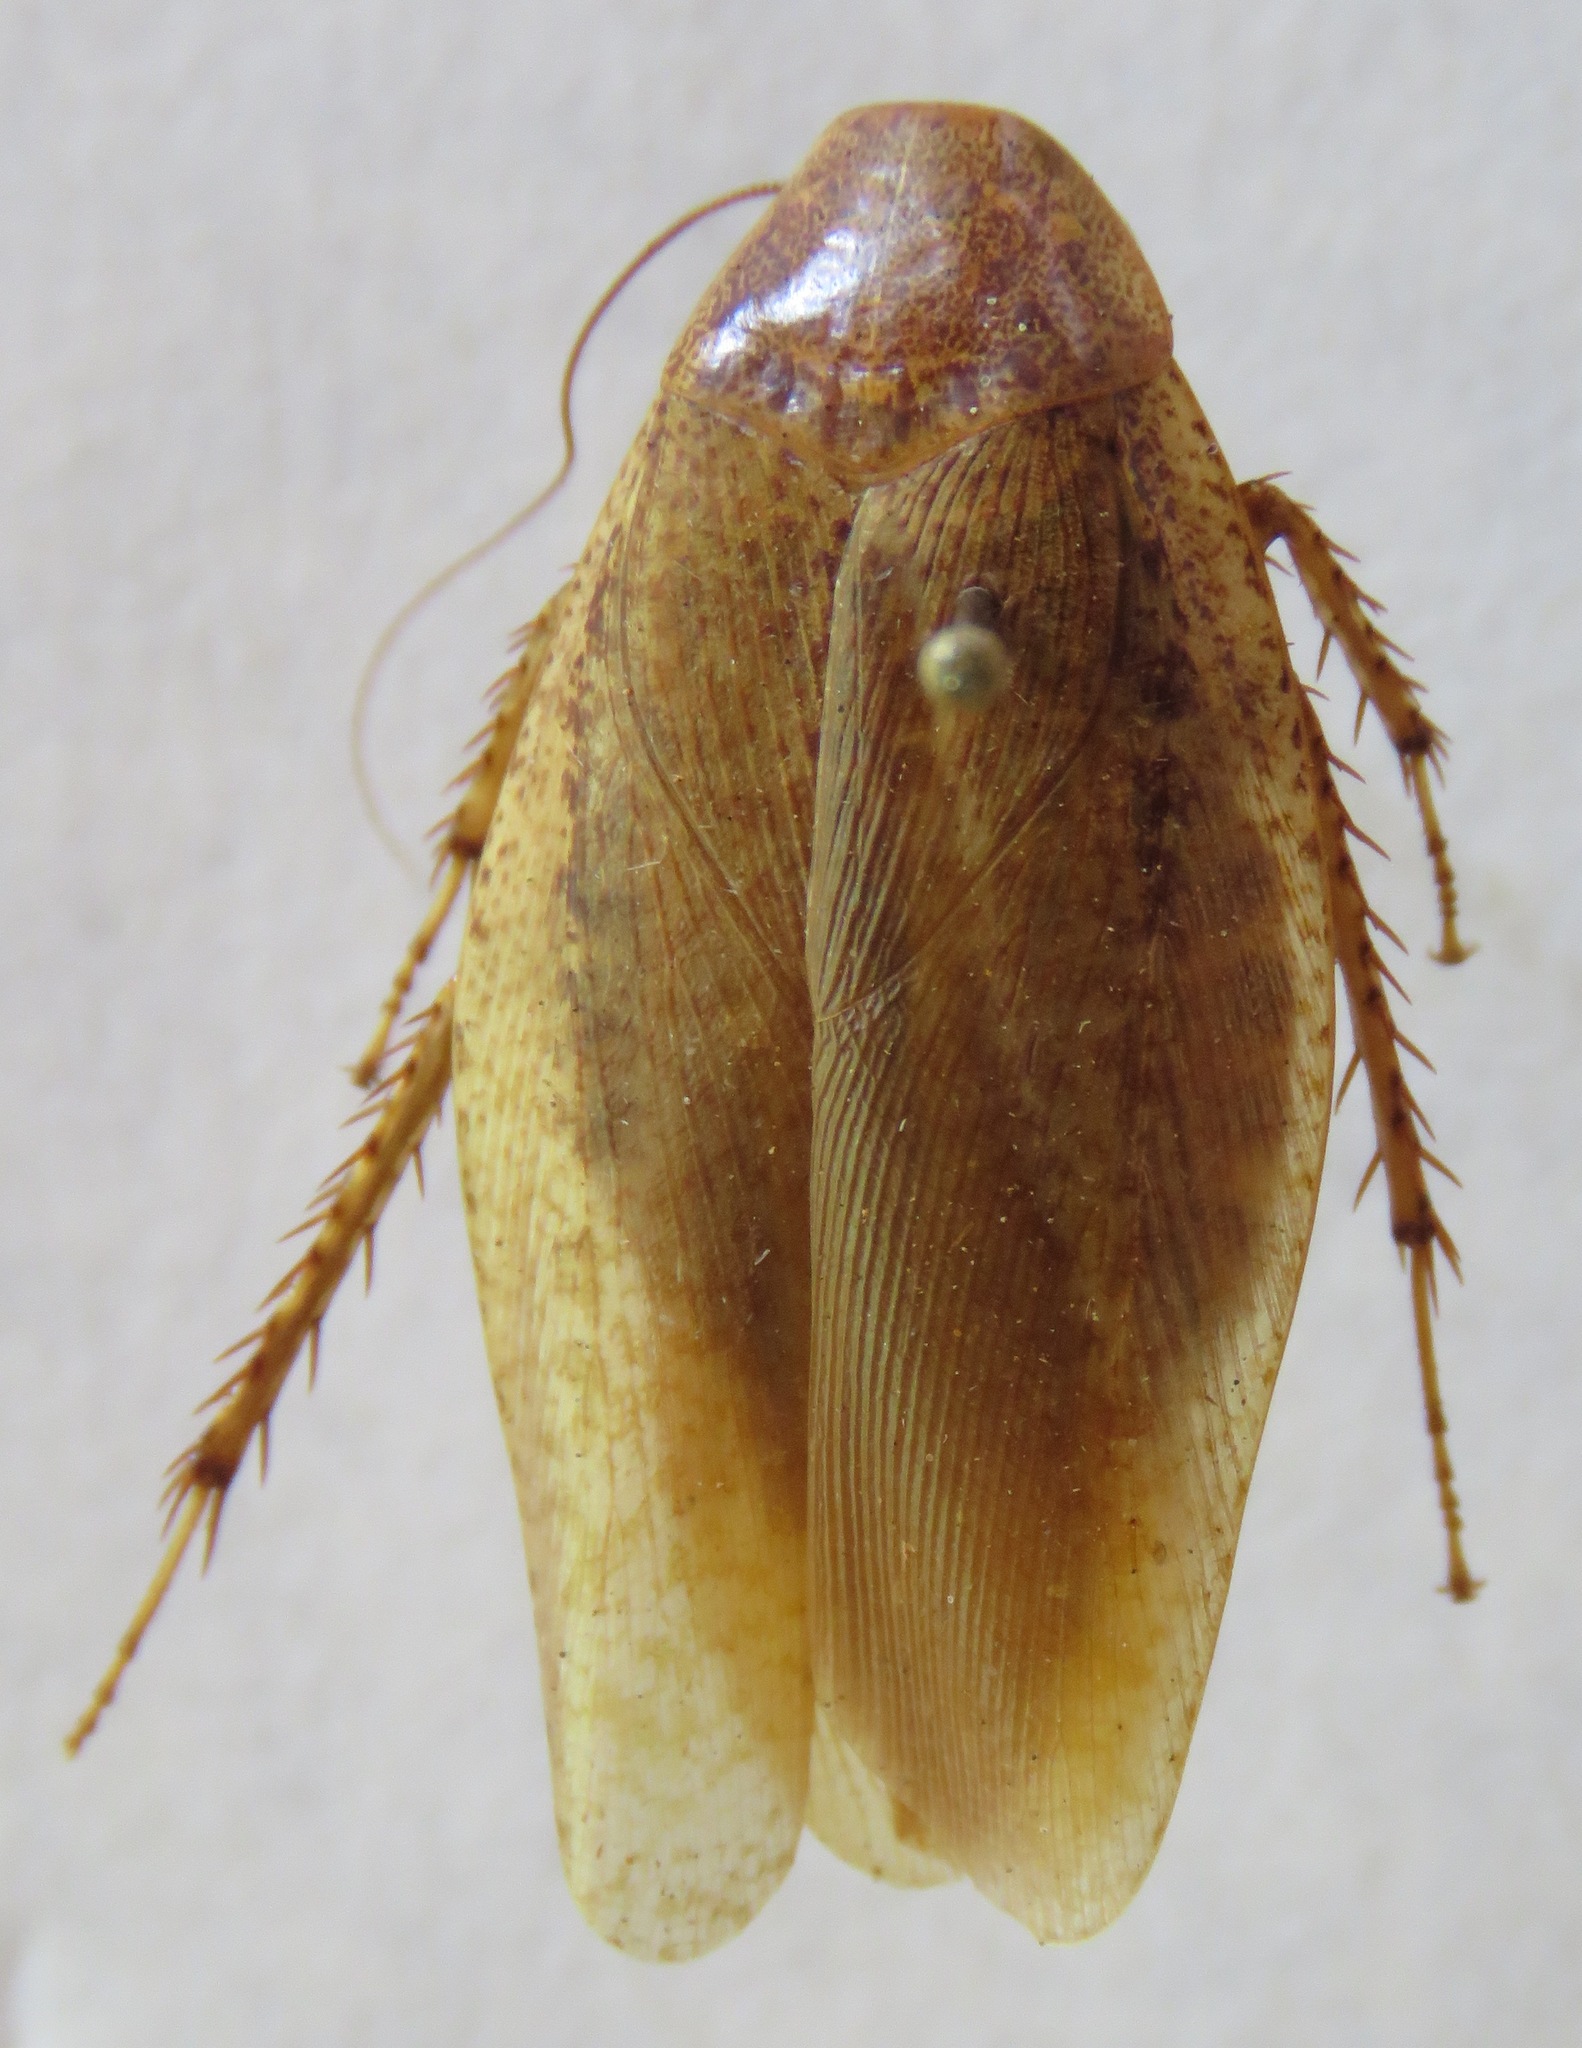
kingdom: Animalia
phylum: Arthropoda
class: Insecta
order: Blattodea
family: Blaberidae
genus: Epilampra
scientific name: Epilampra maya
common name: Maya cockroach
